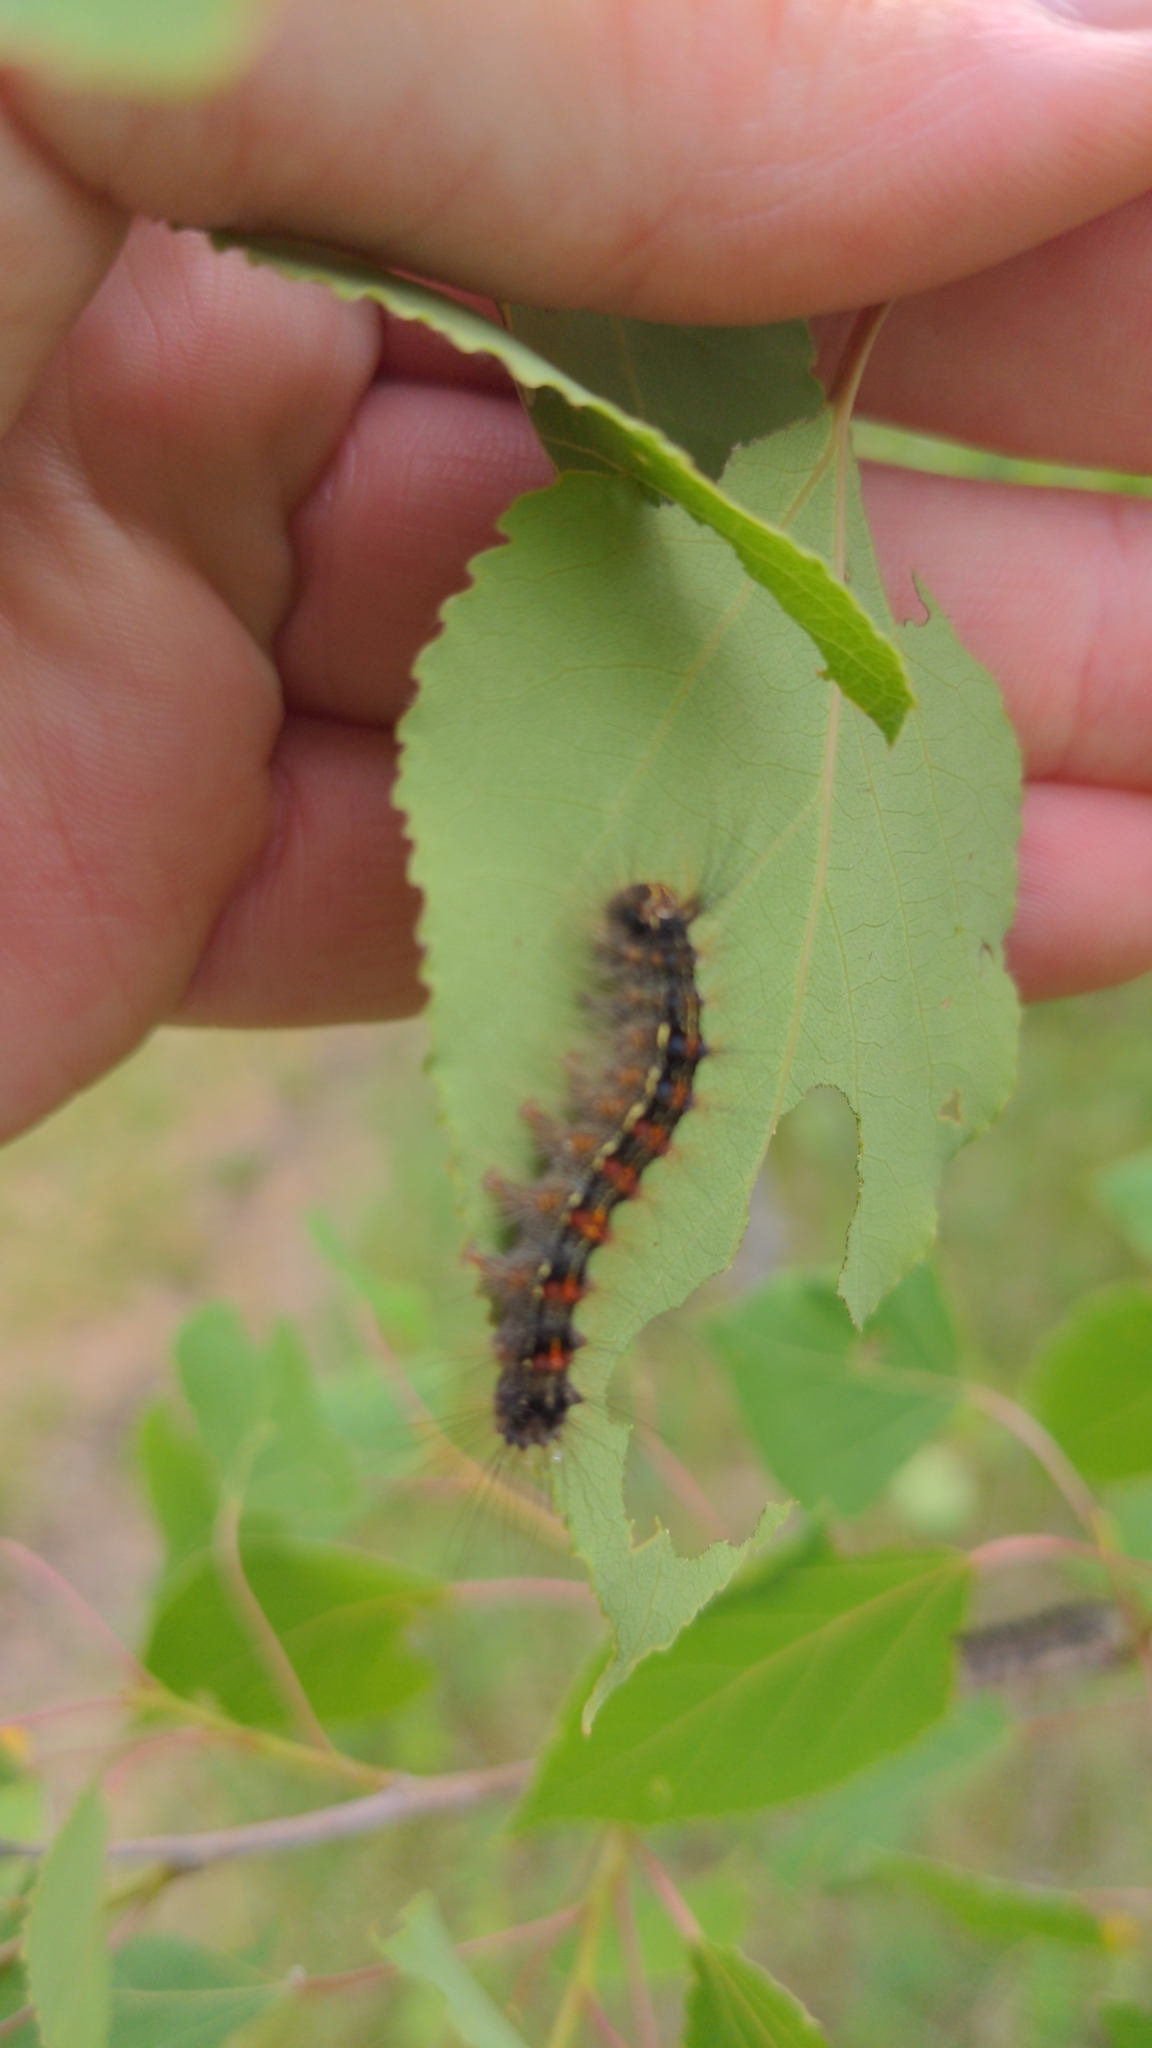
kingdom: Animalia
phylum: Arthropoda
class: Insecta
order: Lepidoptera
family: Erebidae
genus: Lymantria
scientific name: Lymantria dispar
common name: Gypsy moth
